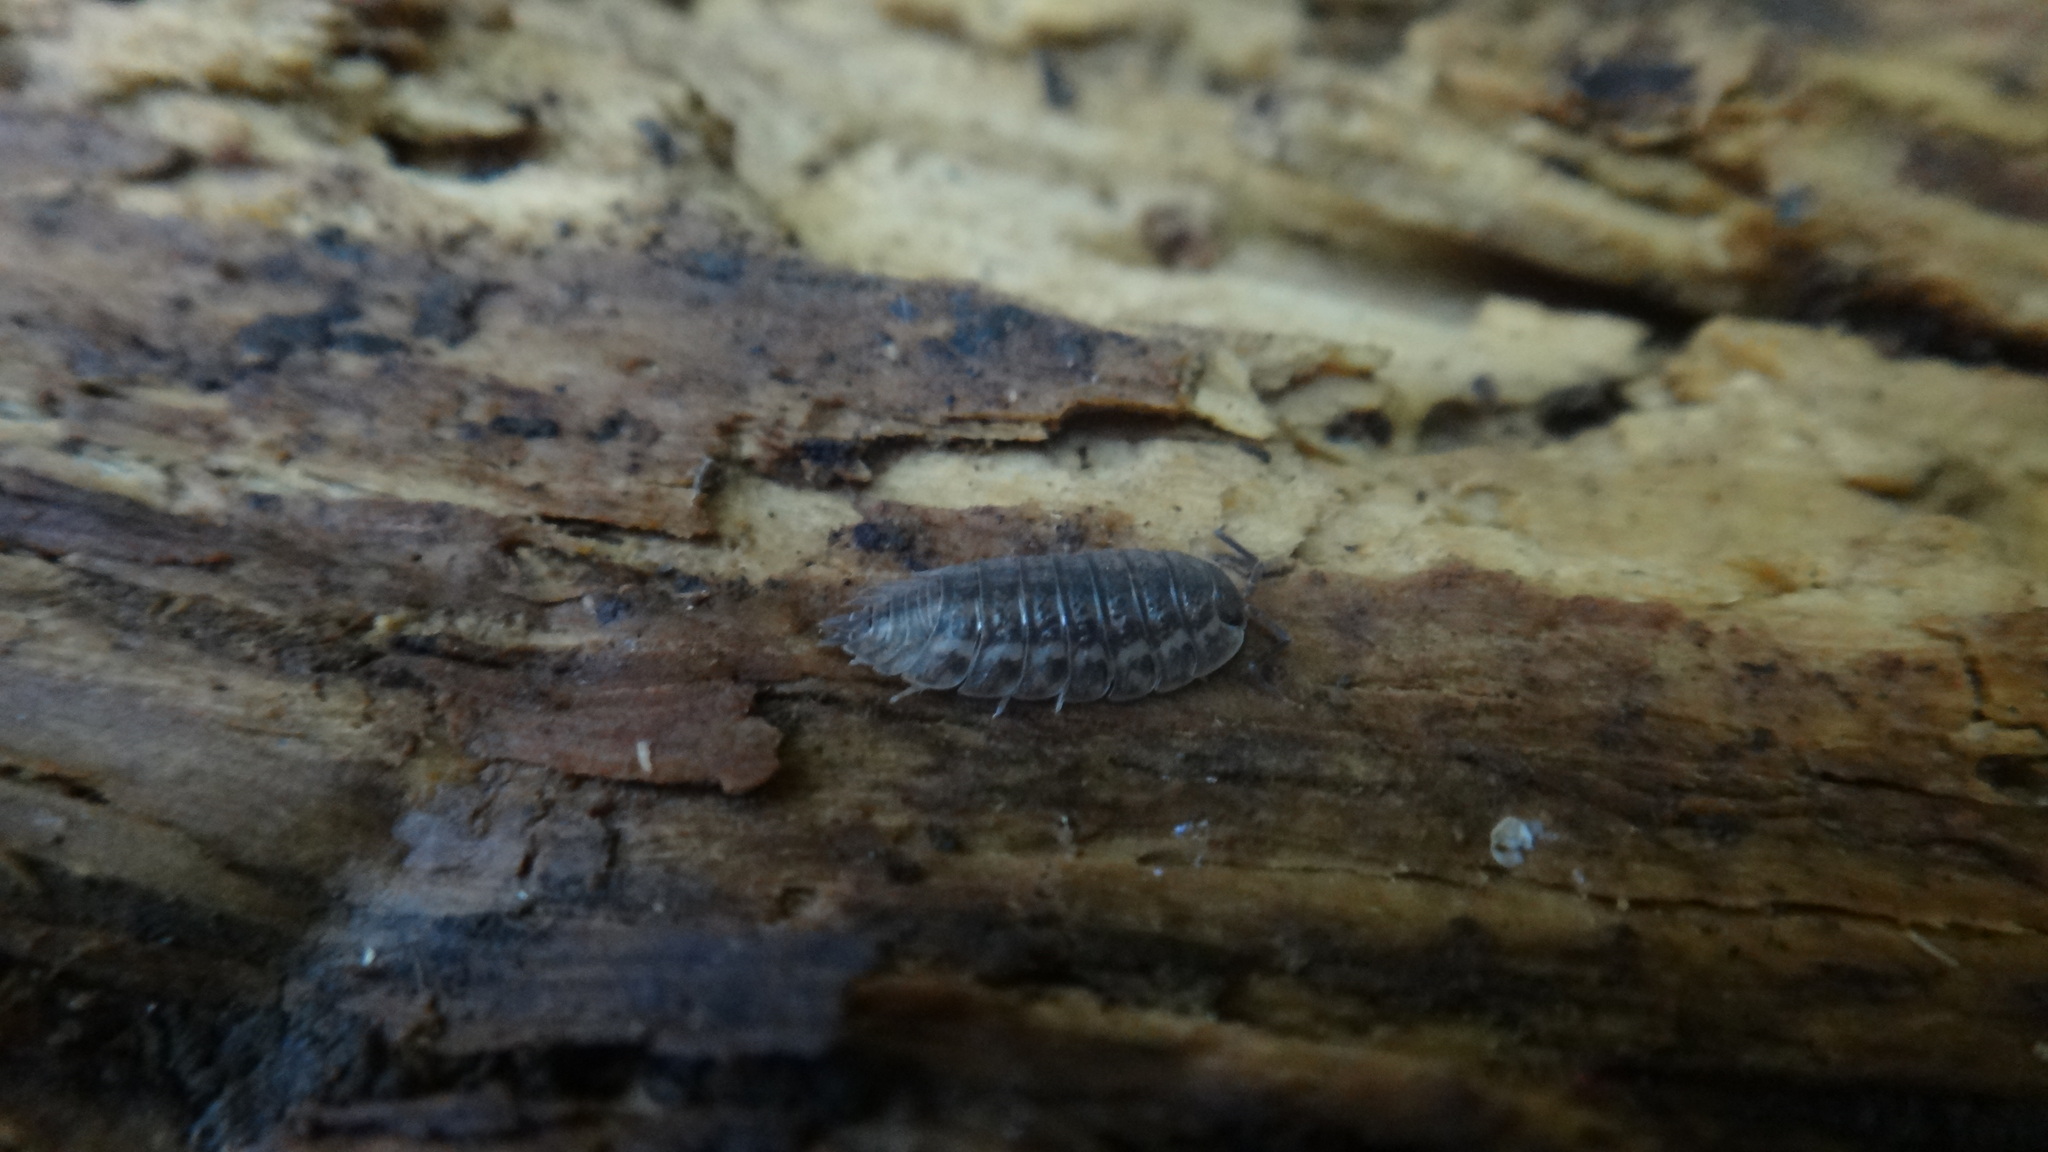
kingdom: Animalia
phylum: Arthropoda
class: Malacostraca
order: Isopoda
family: Trachelipodidae
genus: Trachelipus
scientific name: Trachelipus rathkii
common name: Isopod
